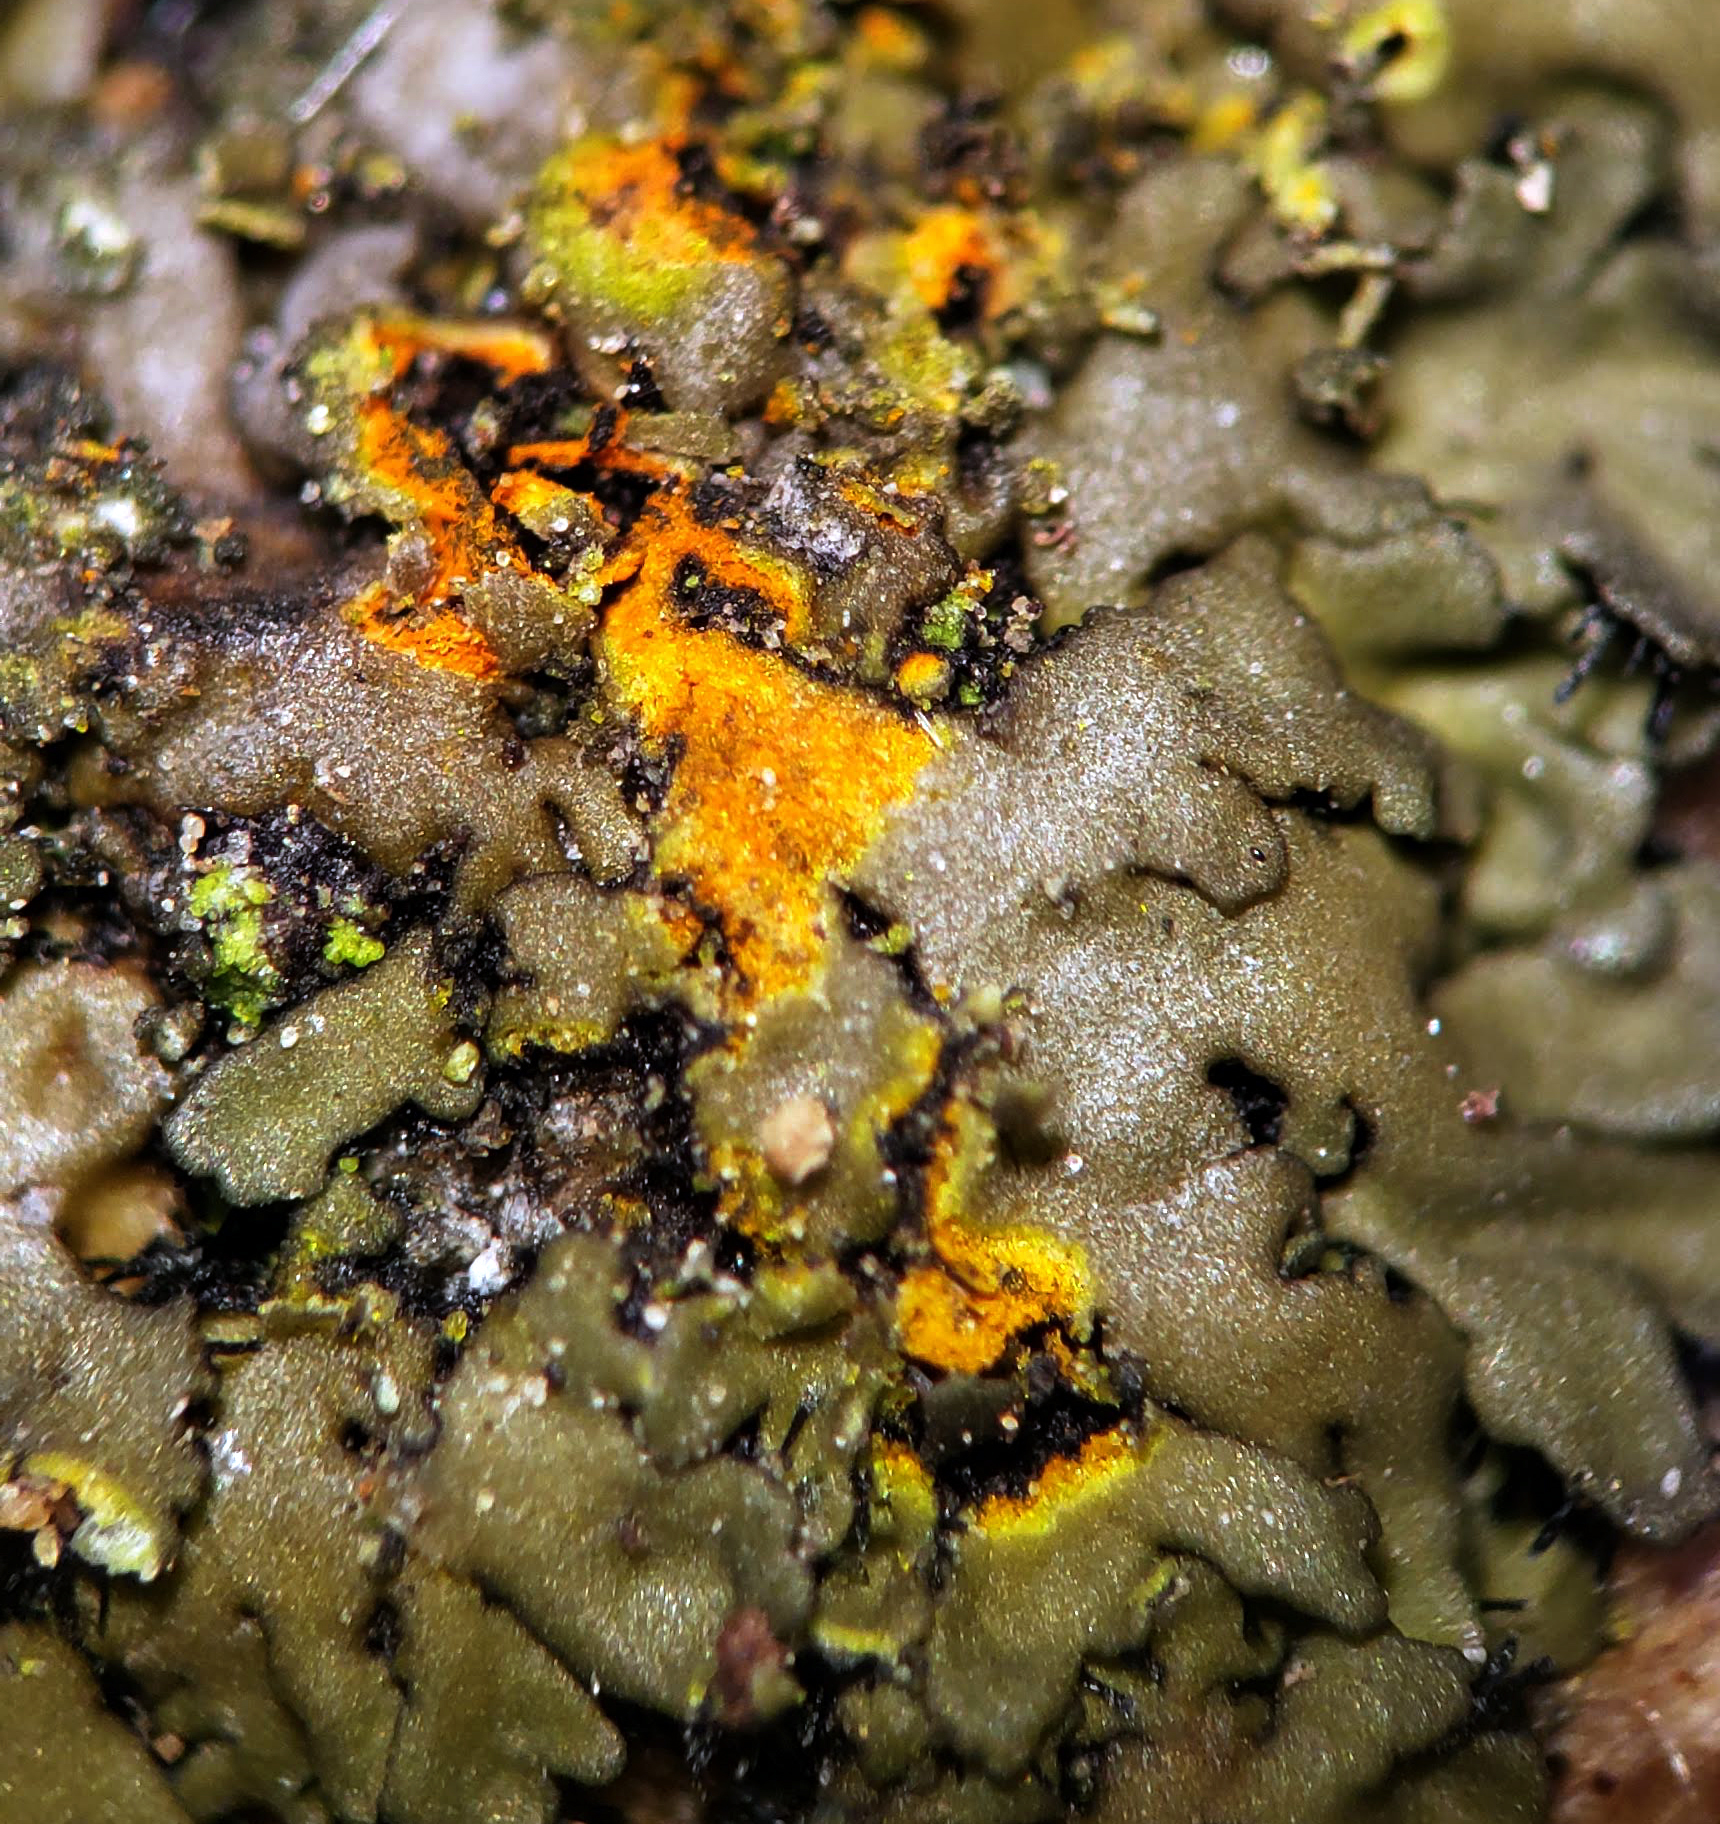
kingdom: Fungi
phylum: Ascomycota
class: Lecanoromycetes
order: Caliciales
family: Physciaceae
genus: Phaeophyscia
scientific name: Phaeophyscia rubropulchra
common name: Orange-cored shadow lichen
